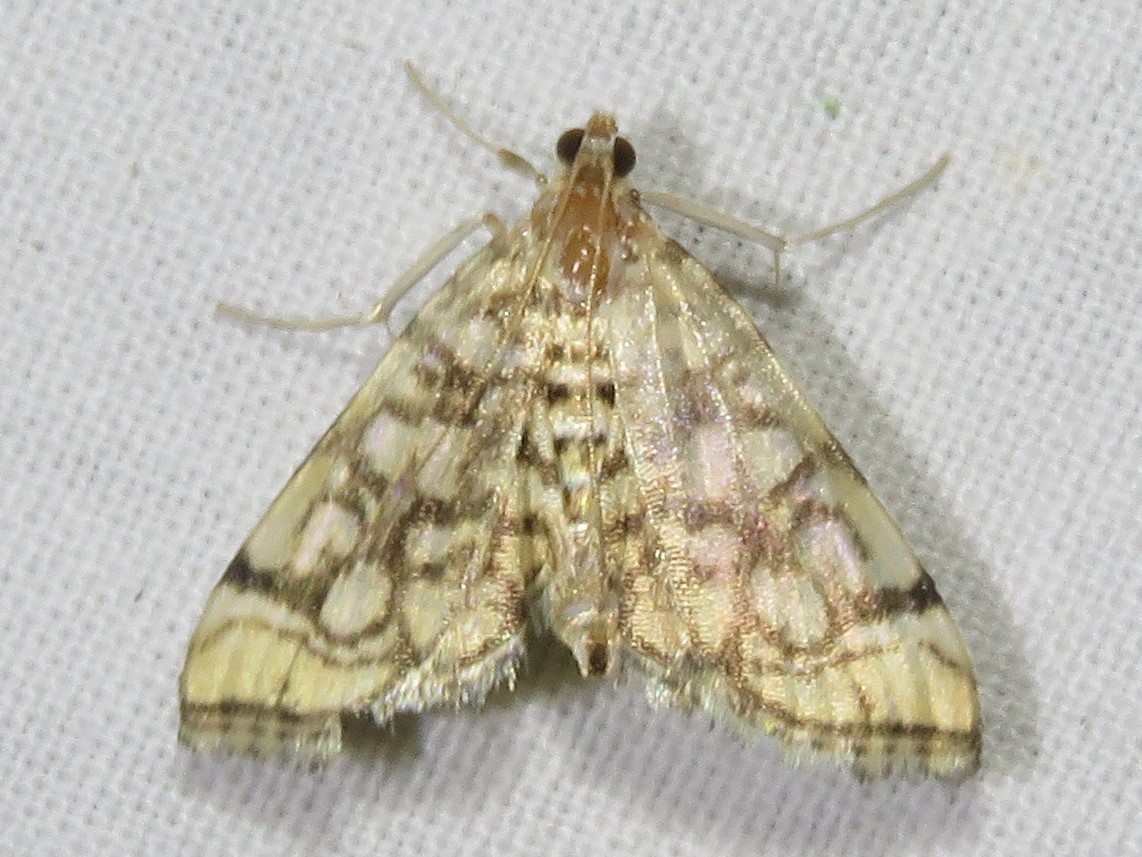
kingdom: Animalia
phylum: Arthropoda
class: Insecta
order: Lepidoptera
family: Crambidae
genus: Lygropia
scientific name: Lygropia rivulalis
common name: Bog lygropia moth
